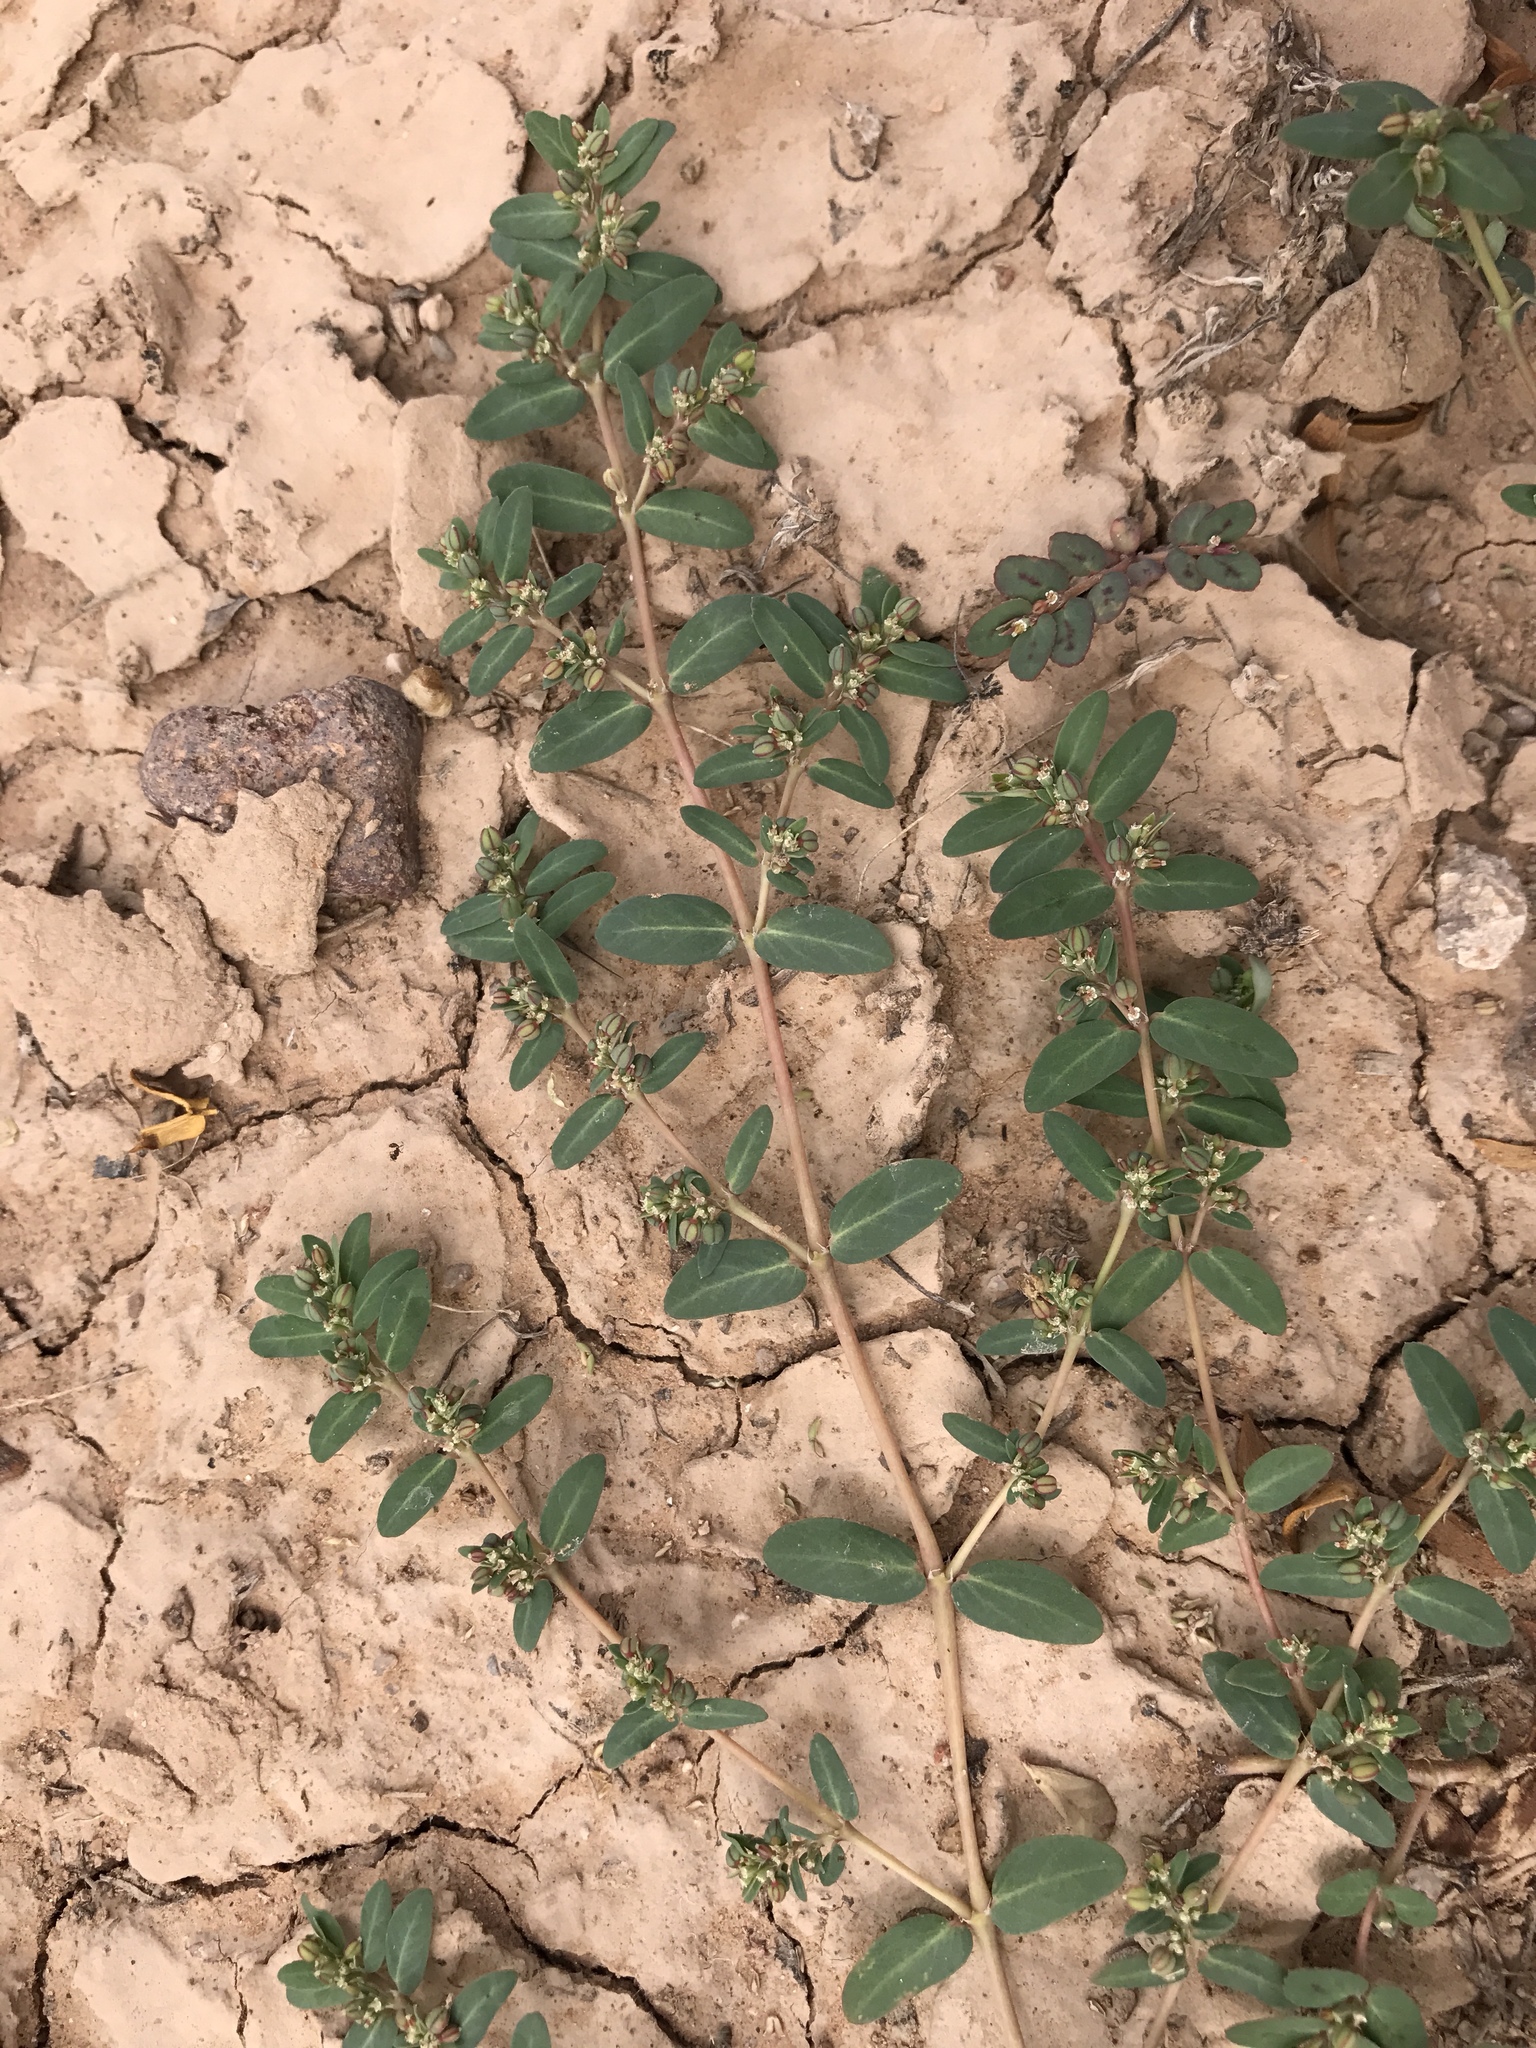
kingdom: Plantae
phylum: Tracheophyta
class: Magnoliopsida
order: Malpighiales
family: Euphorbiaceae
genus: Euphorbia
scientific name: Euphorbia abramsiana
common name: Abram's spurge
